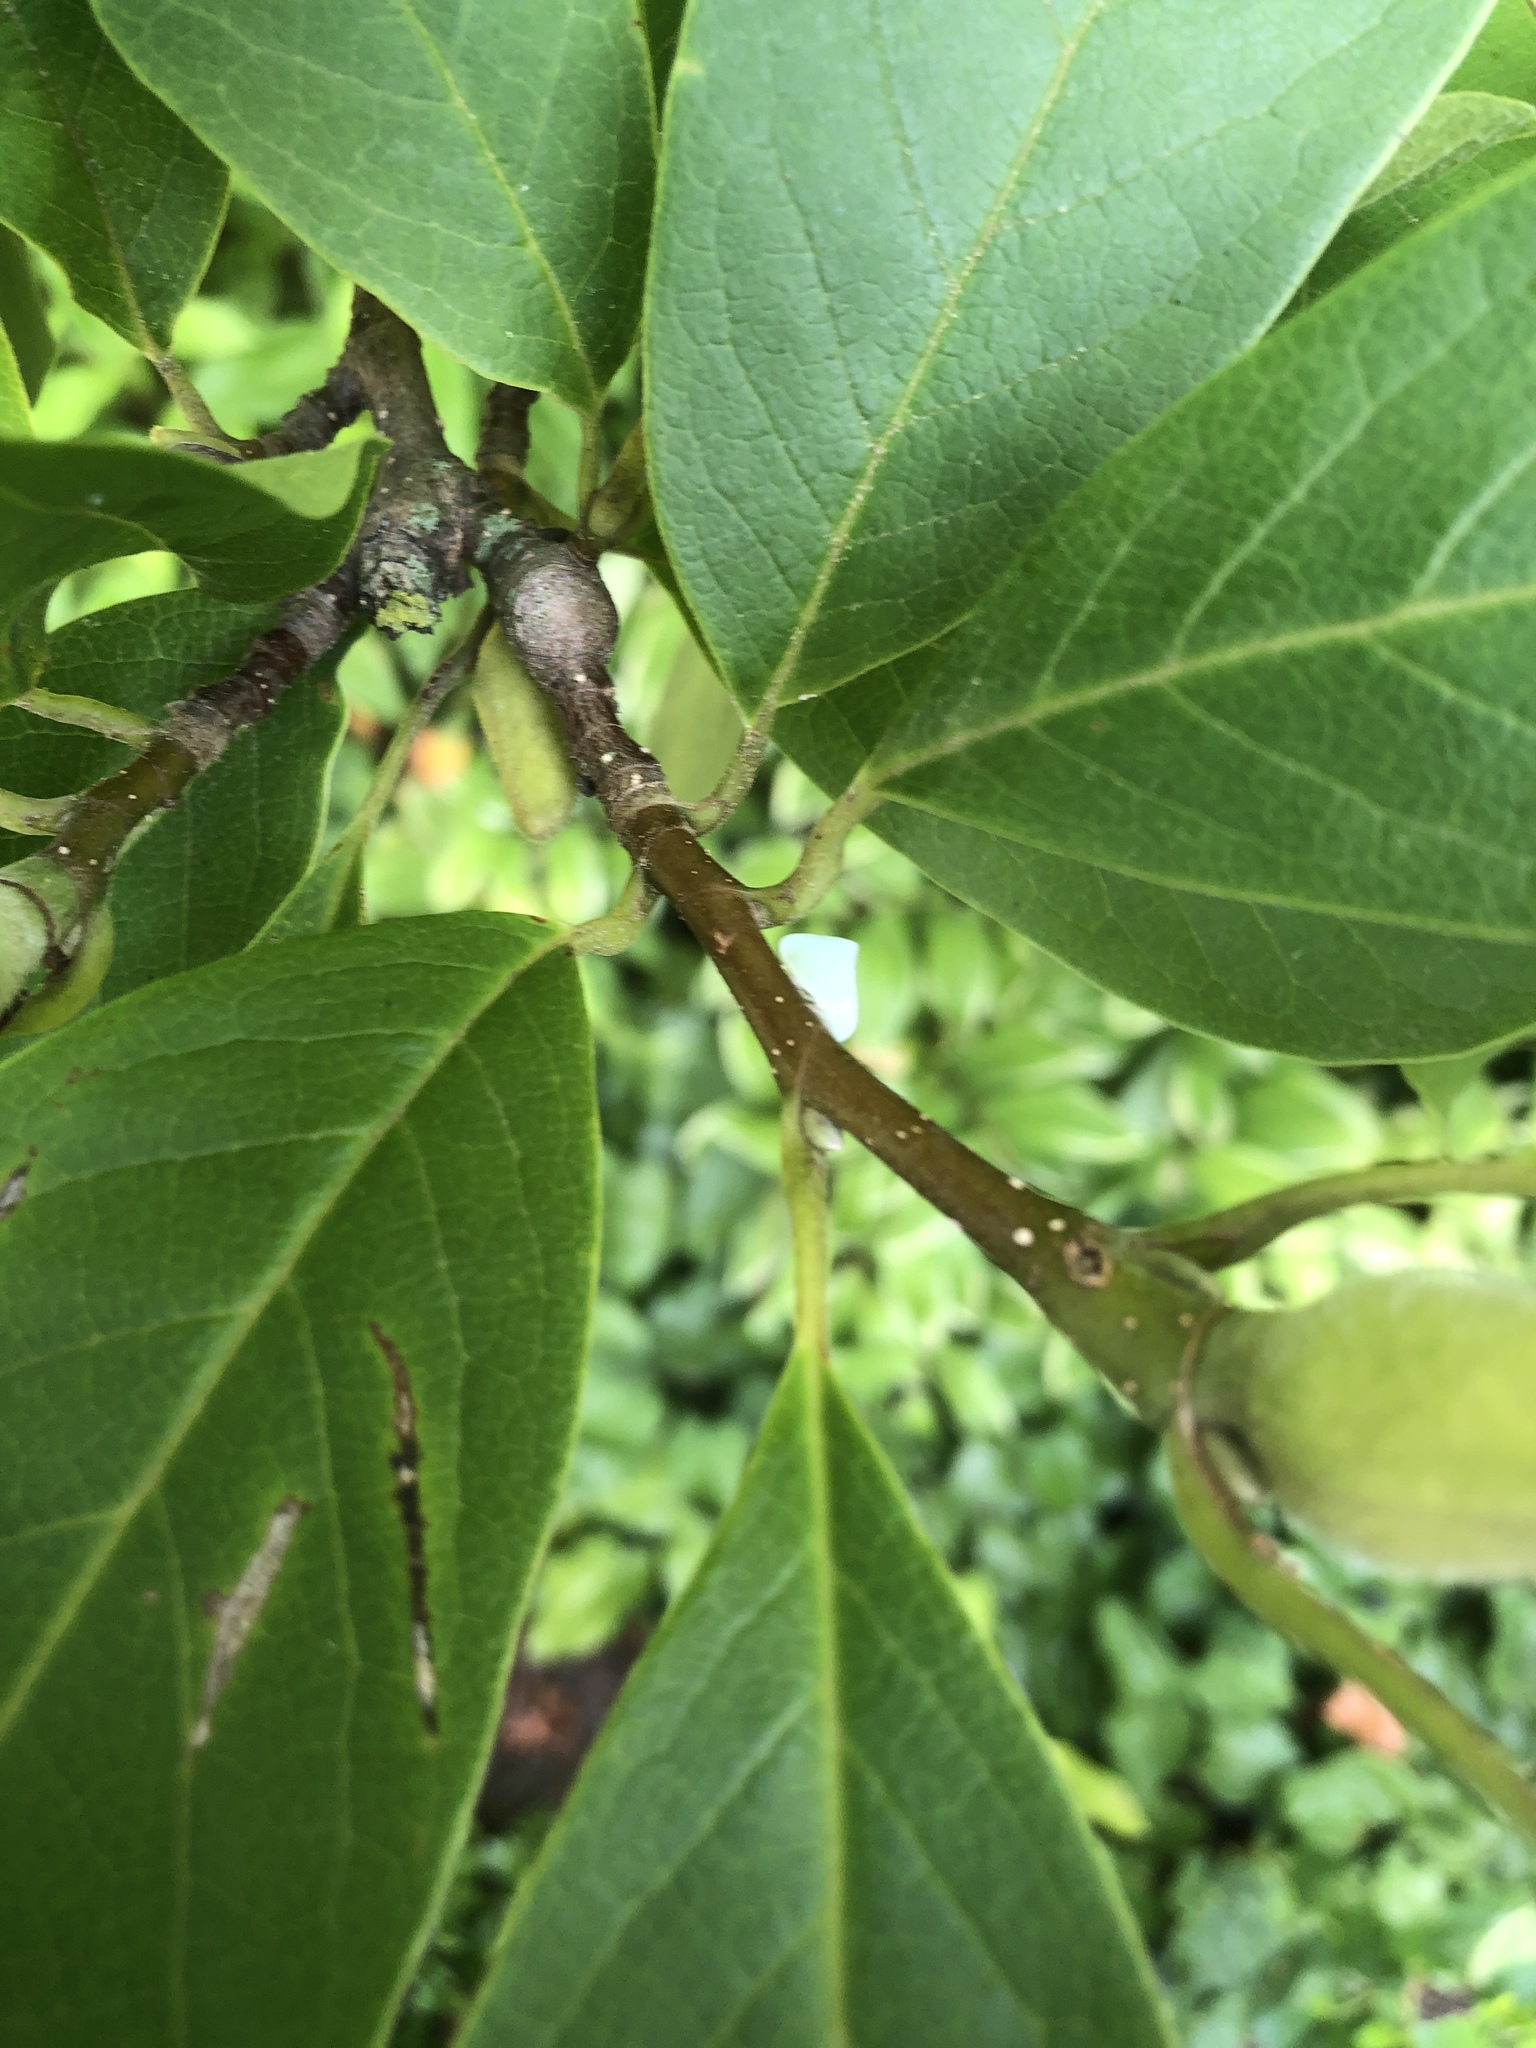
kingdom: Animalia
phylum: Arthropoda
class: Insecta
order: Hemiptera
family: Flatidae
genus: Flatormenis
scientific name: Flatormenis proxima
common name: Northern flatid planthopper
